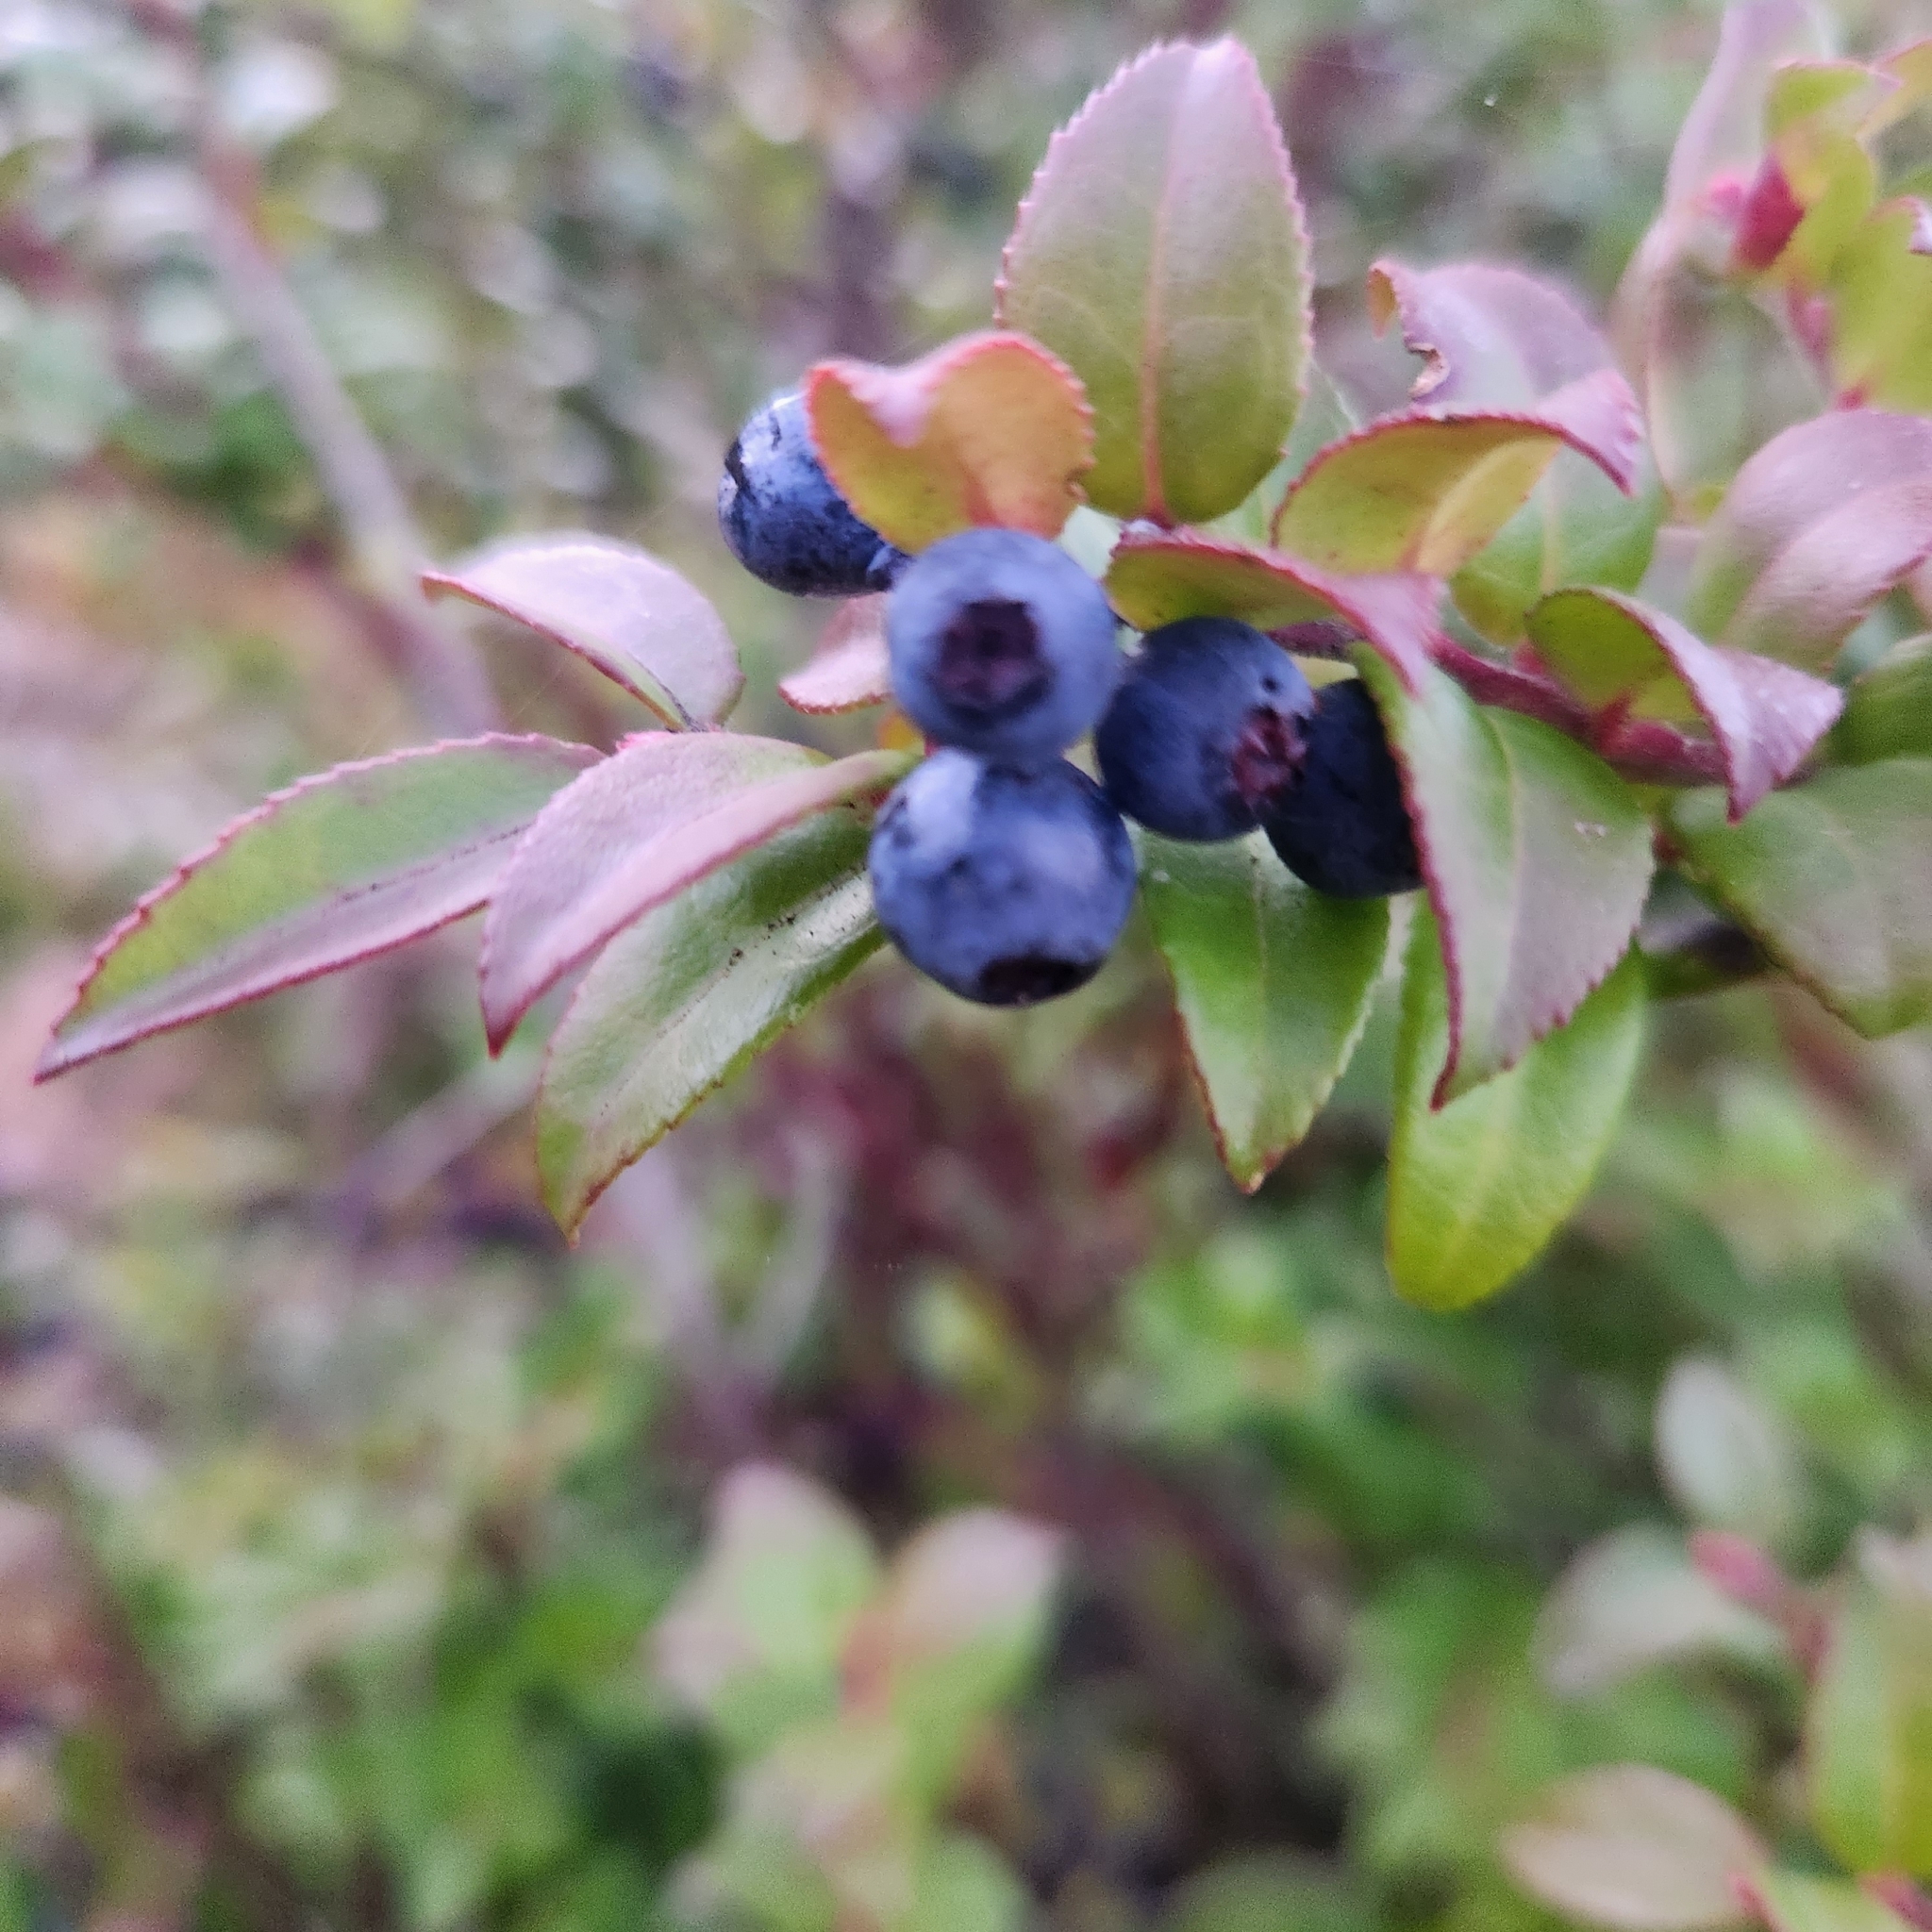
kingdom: Plantae
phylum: Tracheophyta
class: Magnoliopsida
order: Ericales
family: Ericaceae
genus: Vaccinium
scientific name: Vaccinium ovatum
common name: California-huckleberry
